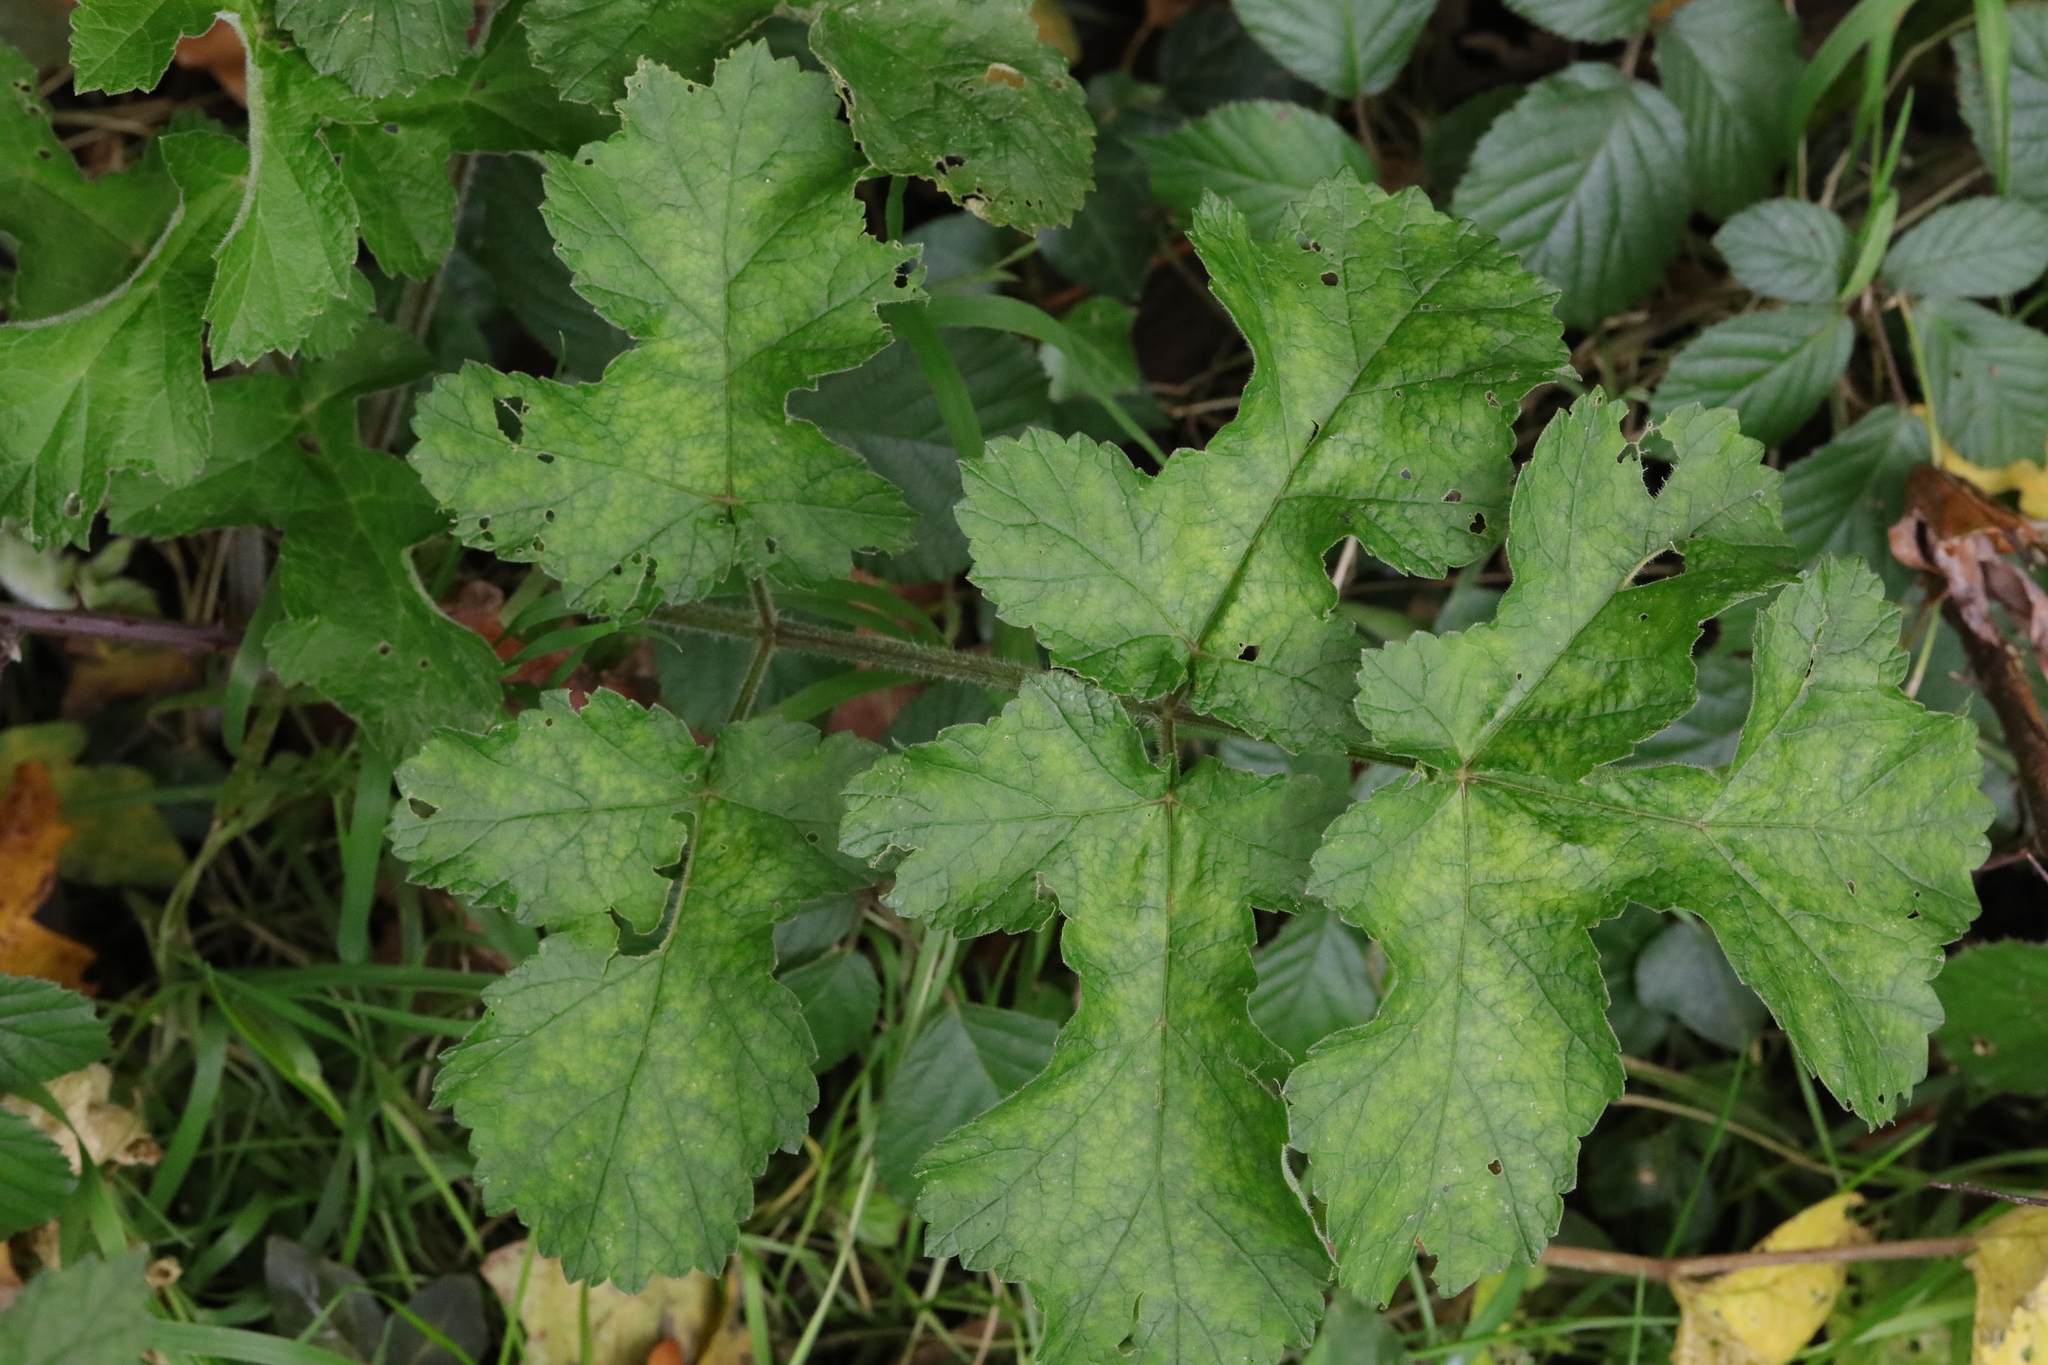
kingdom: Plantae
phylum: Tracheophyta
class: Magnoliopsida
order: Apiales
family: Apiaceae
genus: Heracleum
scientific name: Heracleum sphondylium
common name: Hogweed
